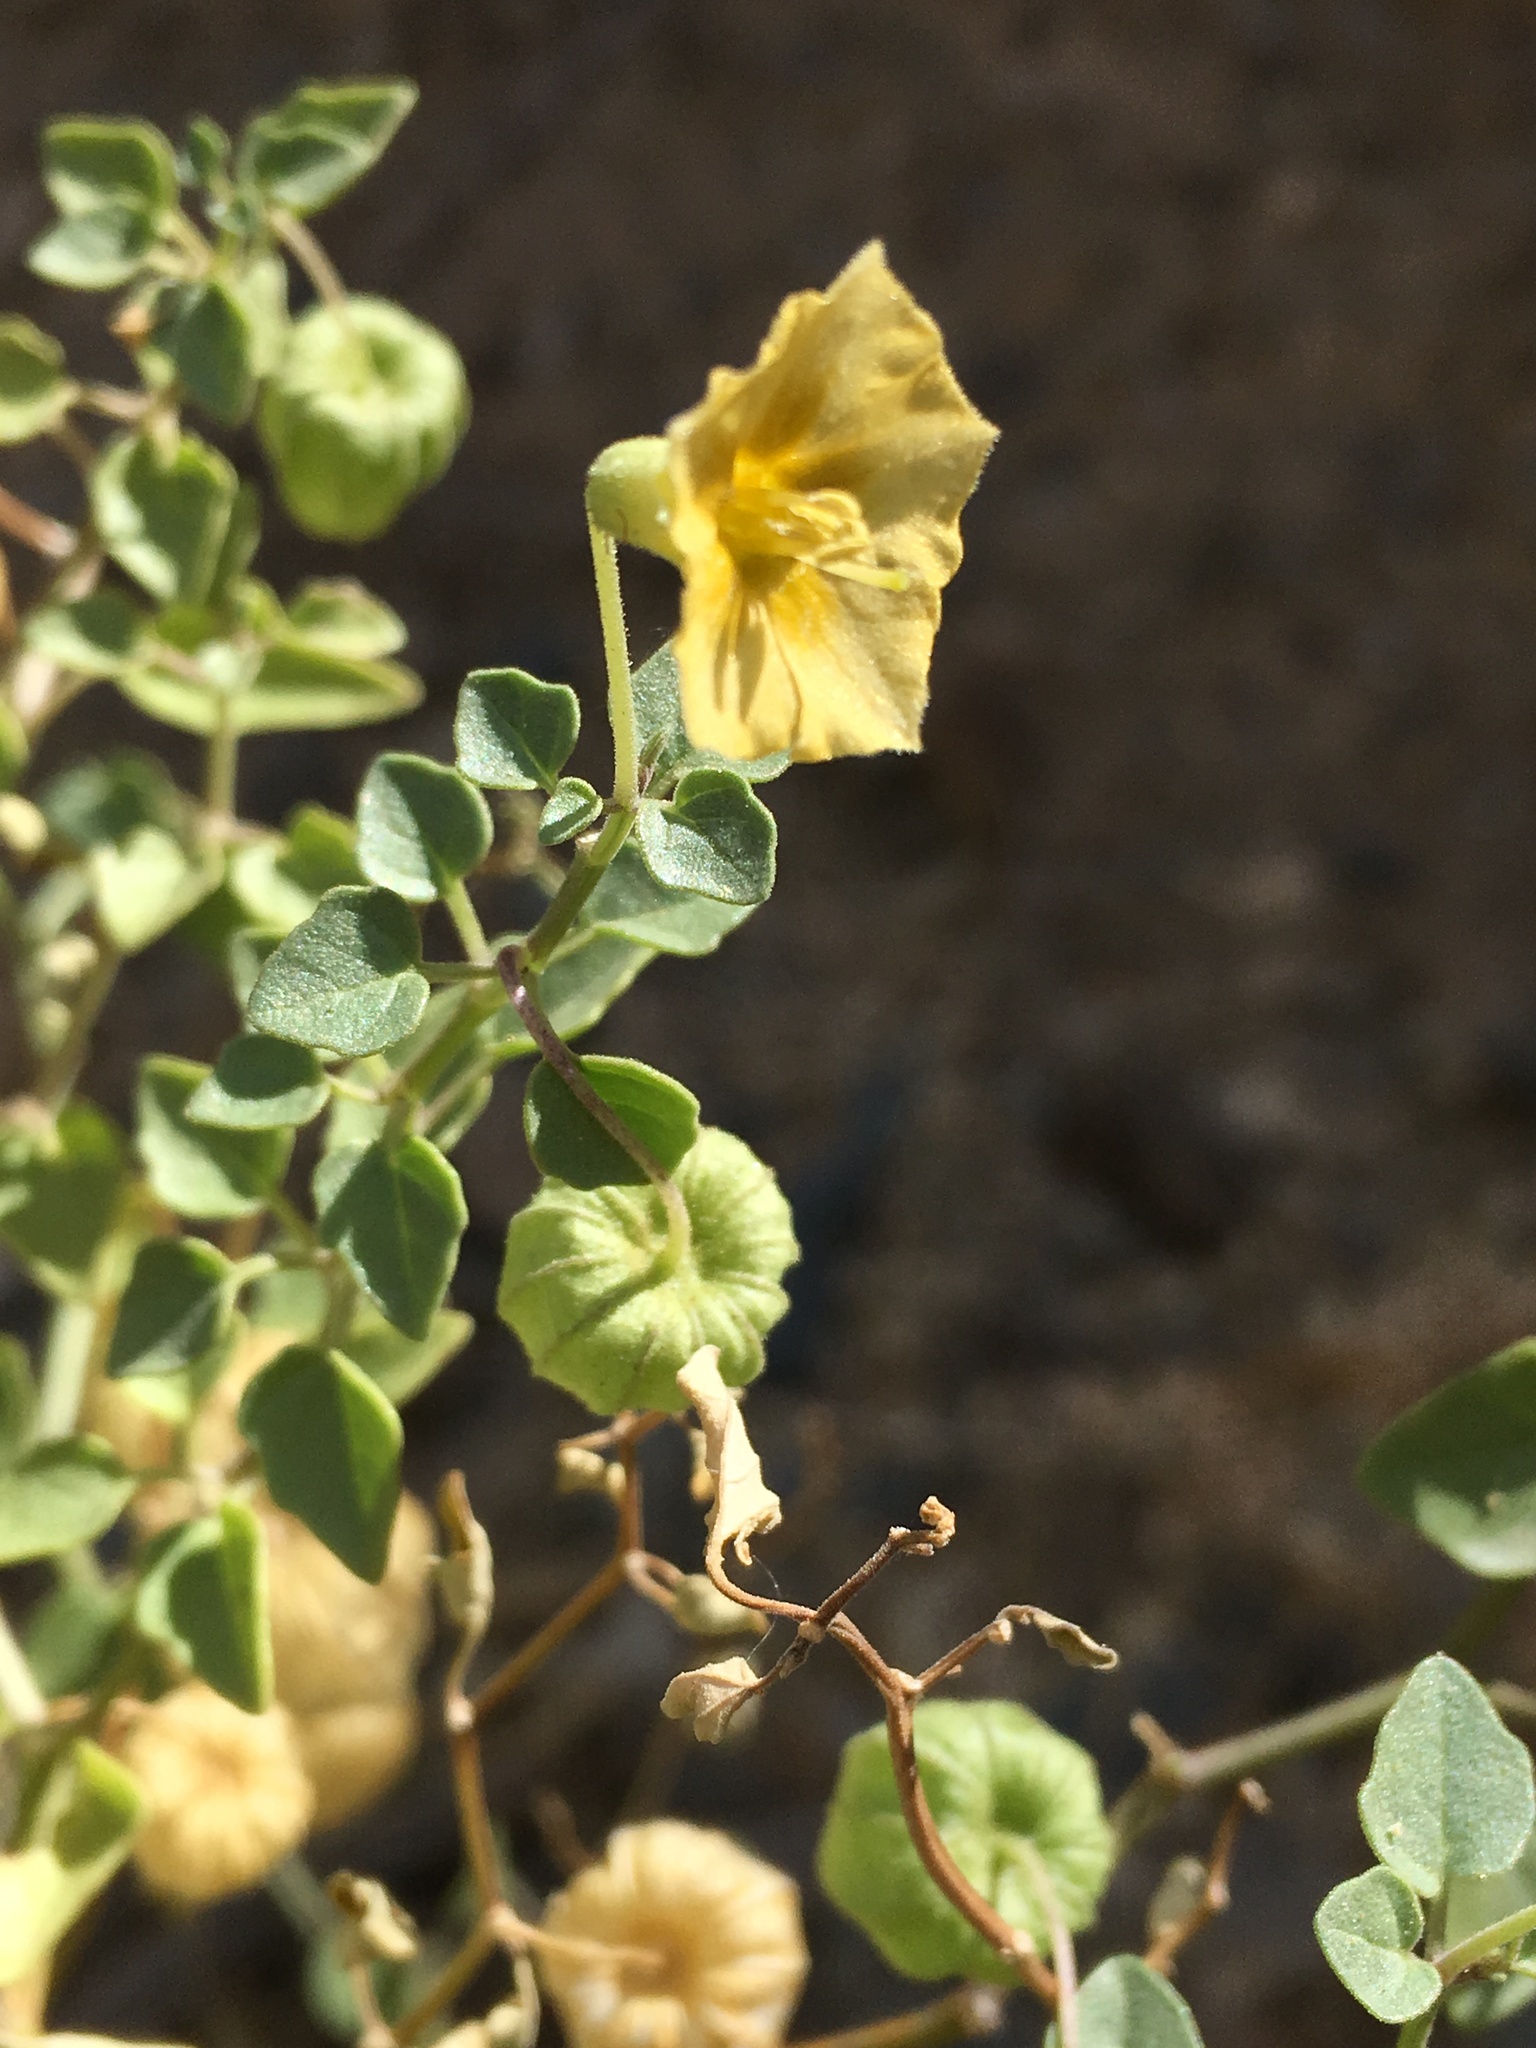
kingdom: Plantae
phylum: Tracheophyta
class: Magnoliopsida
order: Solanales
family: Solanaceae
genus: Physalis
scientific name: Physalis crassifolia
